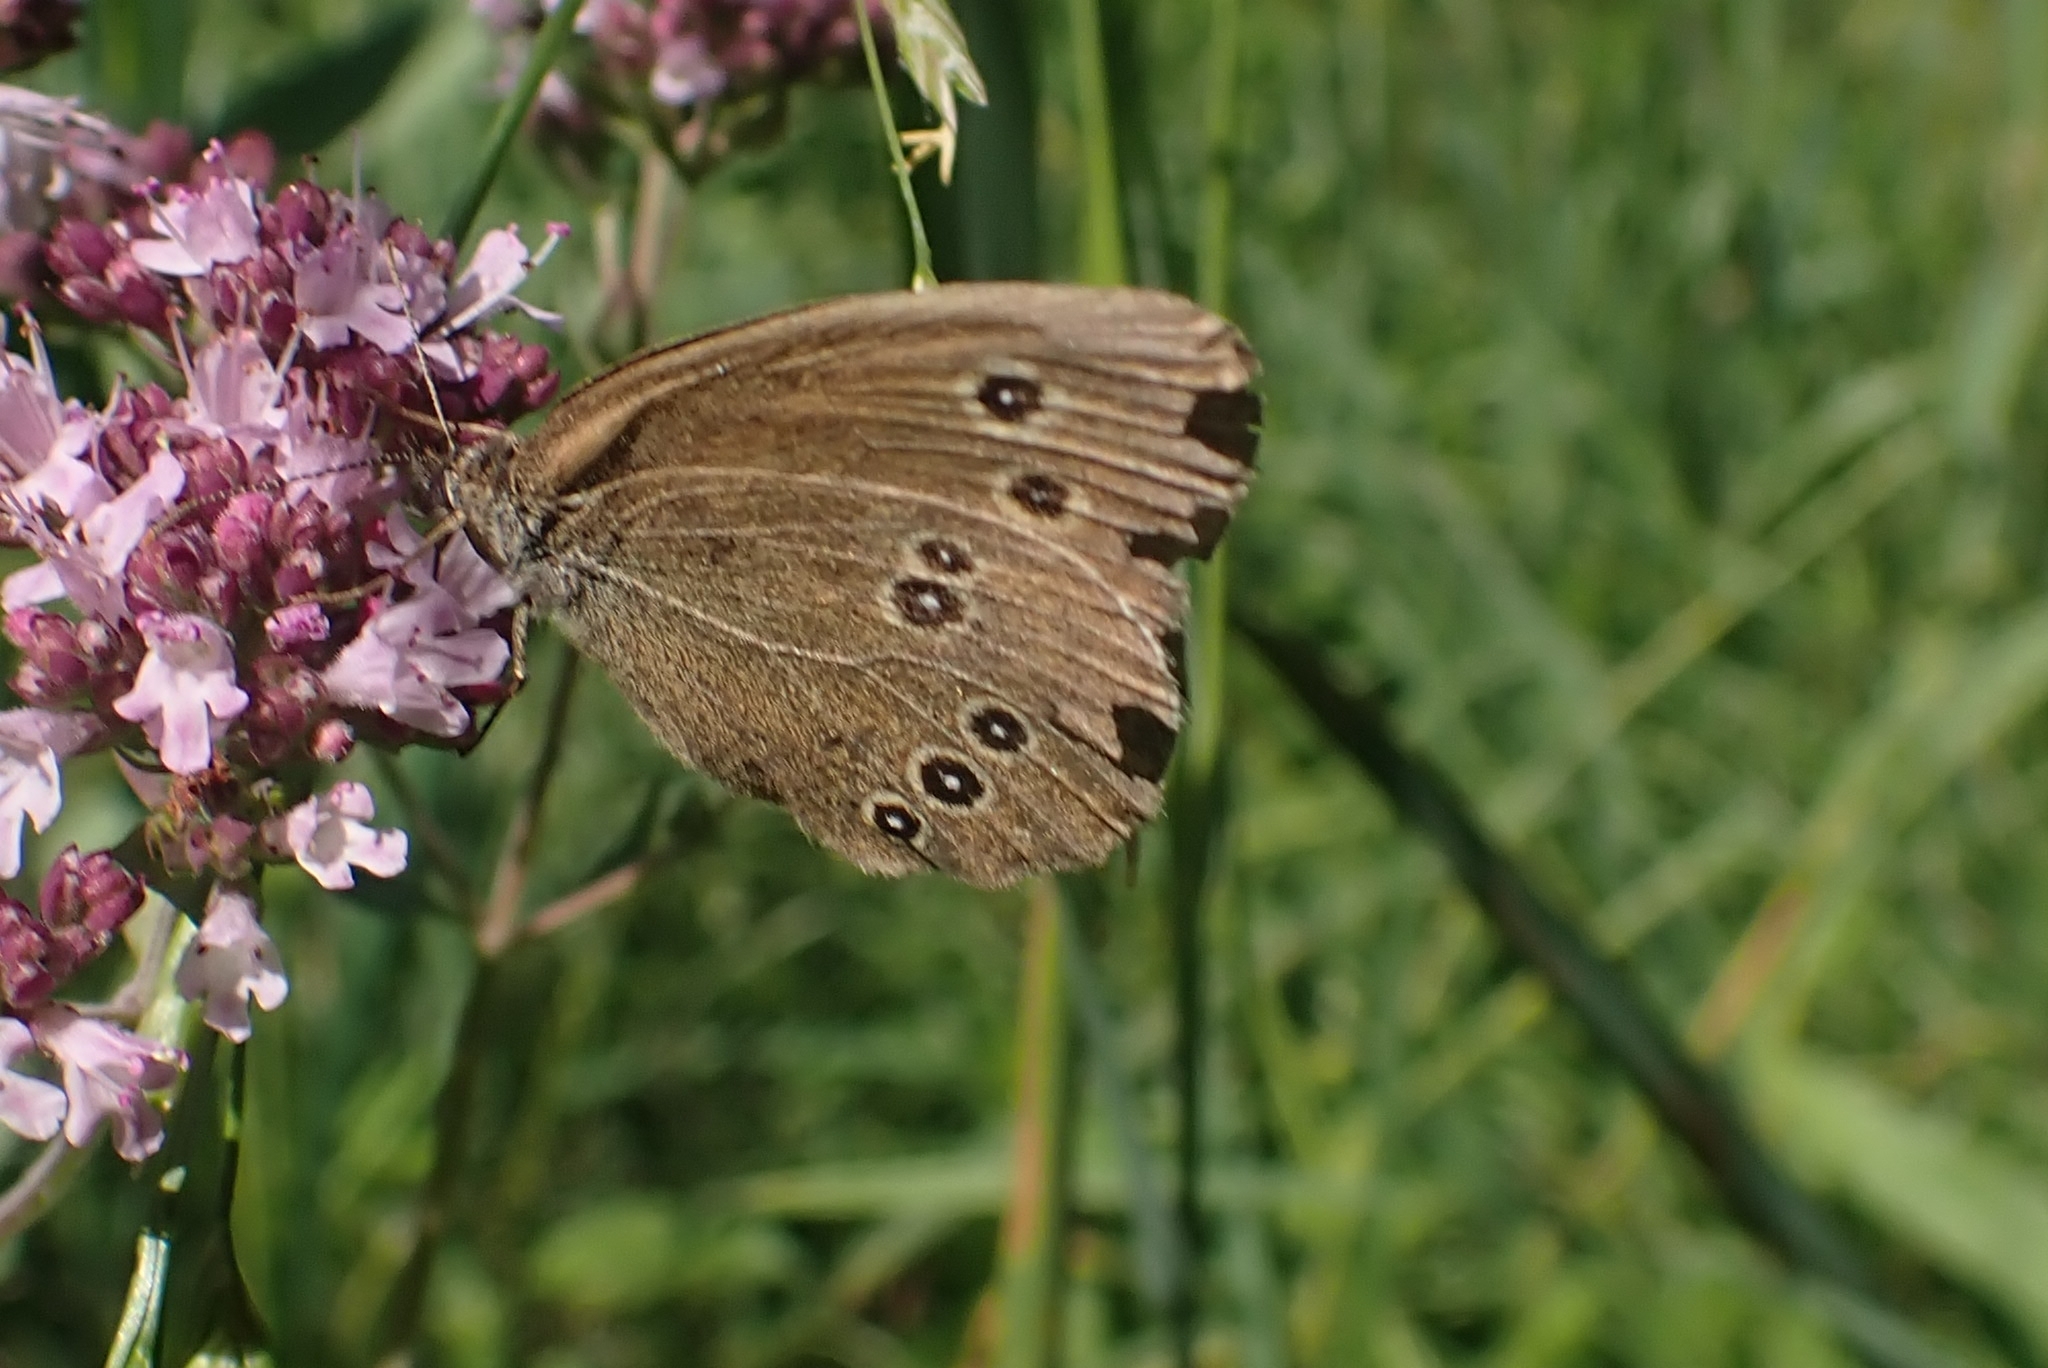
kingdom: Animalia
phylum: Arthropoda
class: Insecta
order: Lepidoptera
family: Nymphalidae
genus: Aphantopus
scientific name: Aphantopus hyperantus
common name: Ringlet
